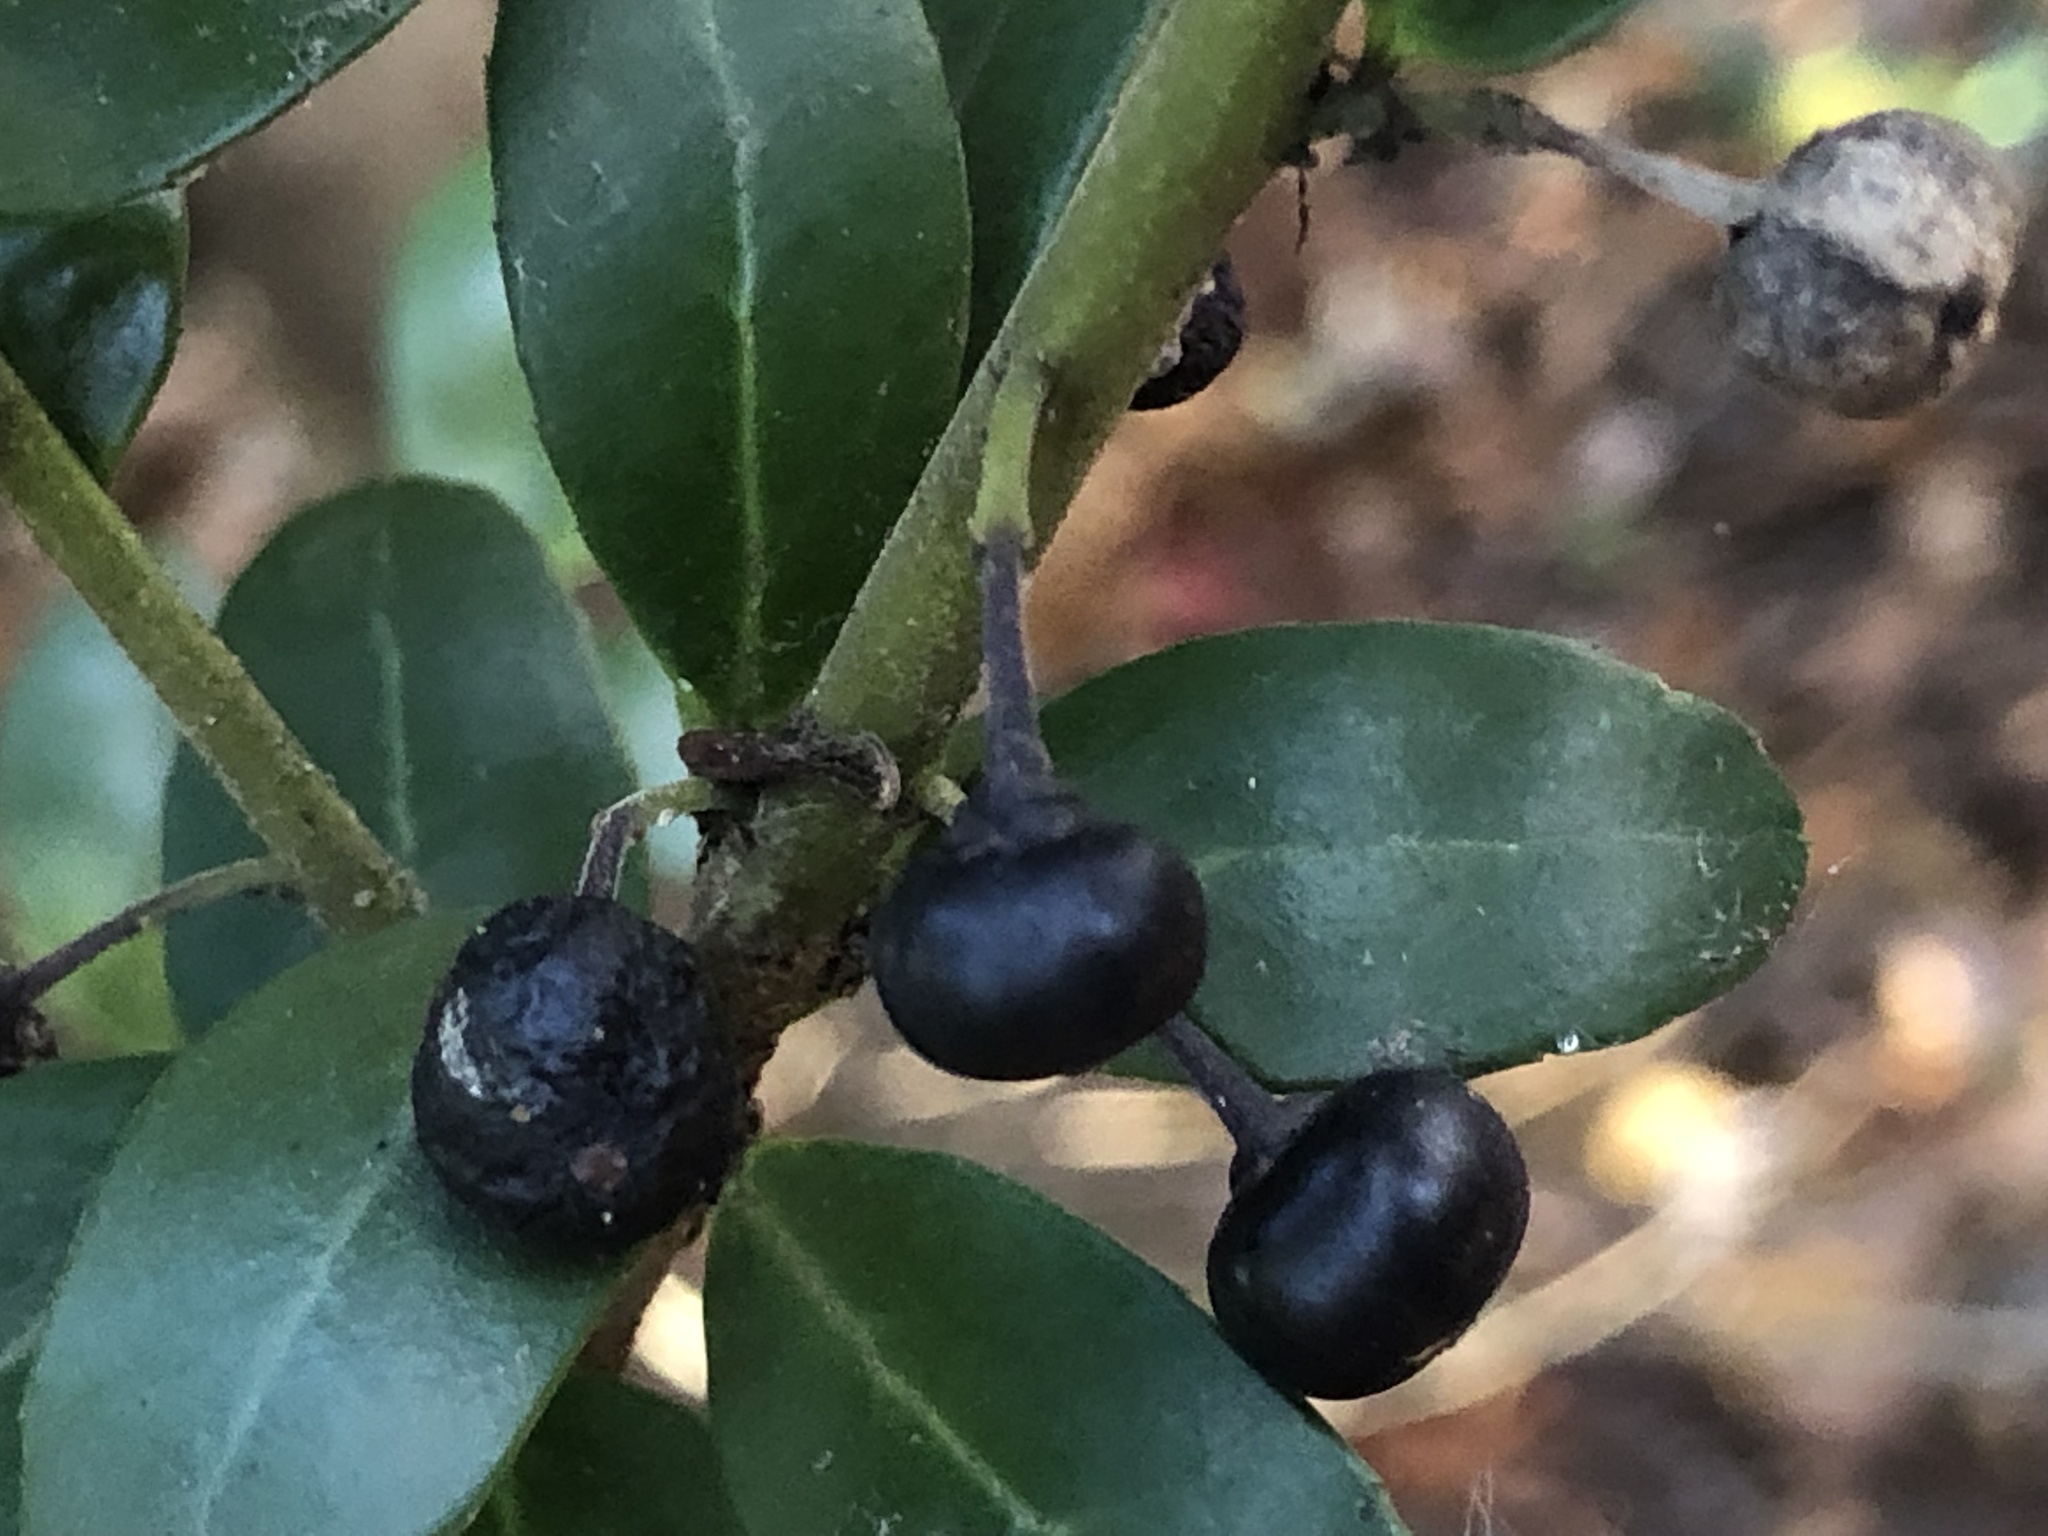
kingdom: Plantae
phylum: Tracheophyta
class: Magnoliopsida
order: Aquifoliales
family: Aquifoliaceae
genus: Ilex
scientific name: Ilex crenata
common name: Japanese holly
